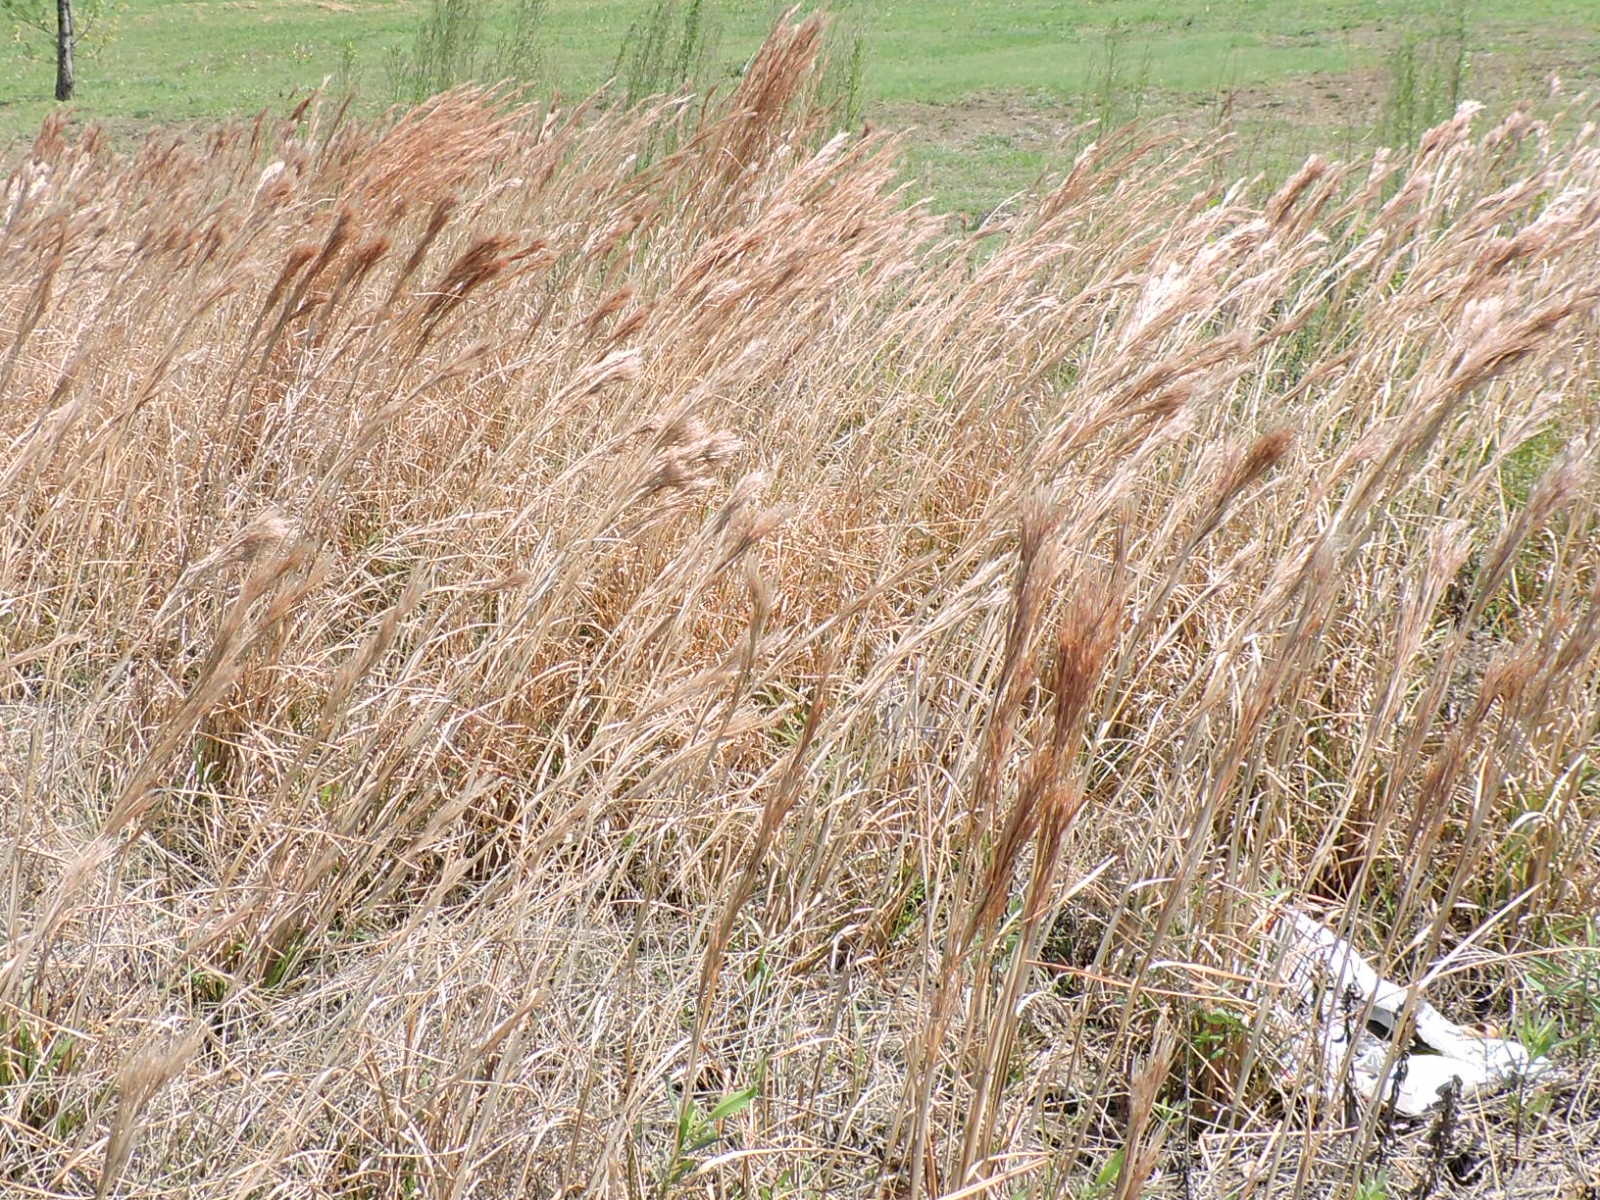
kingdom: Plantae
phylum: Tracheophyta
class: Liliopsida
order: Poales
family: Poaceae
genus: Andropogon
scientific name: Andropogon tenuispatheus
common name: Bushy bluestem
